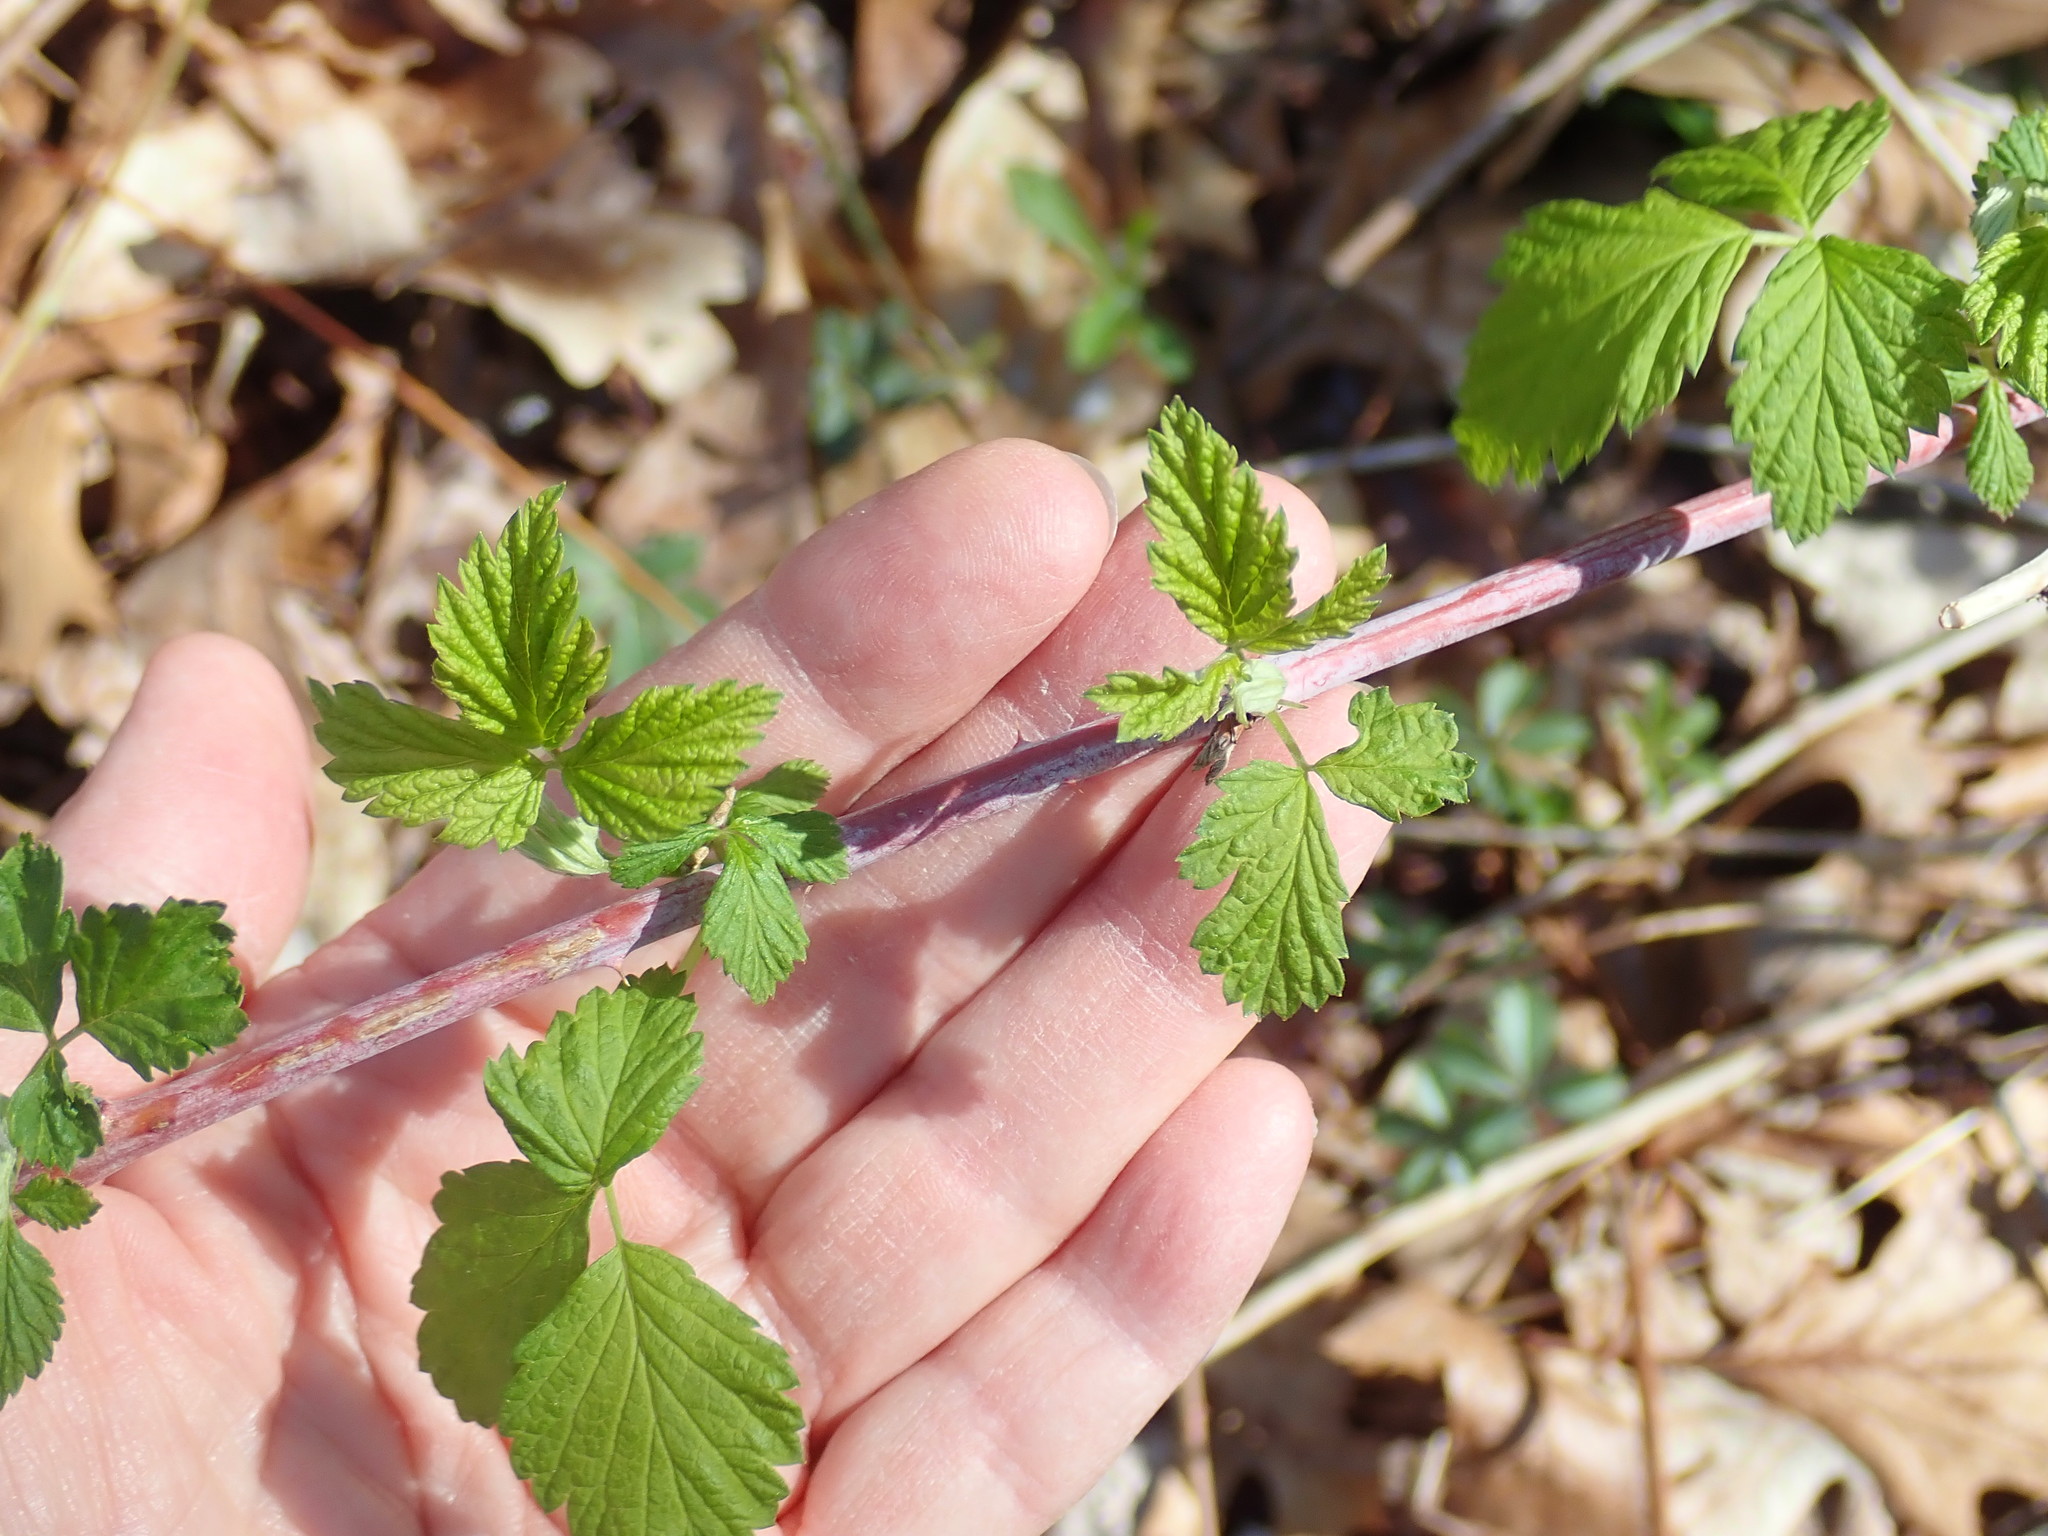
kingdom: Plantae
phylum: Tracheophyta
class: Magnoliopsida
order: Rosales
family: Rosaceae
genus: Rubus
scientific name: Rubus occidentalis
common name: Black raspberry
